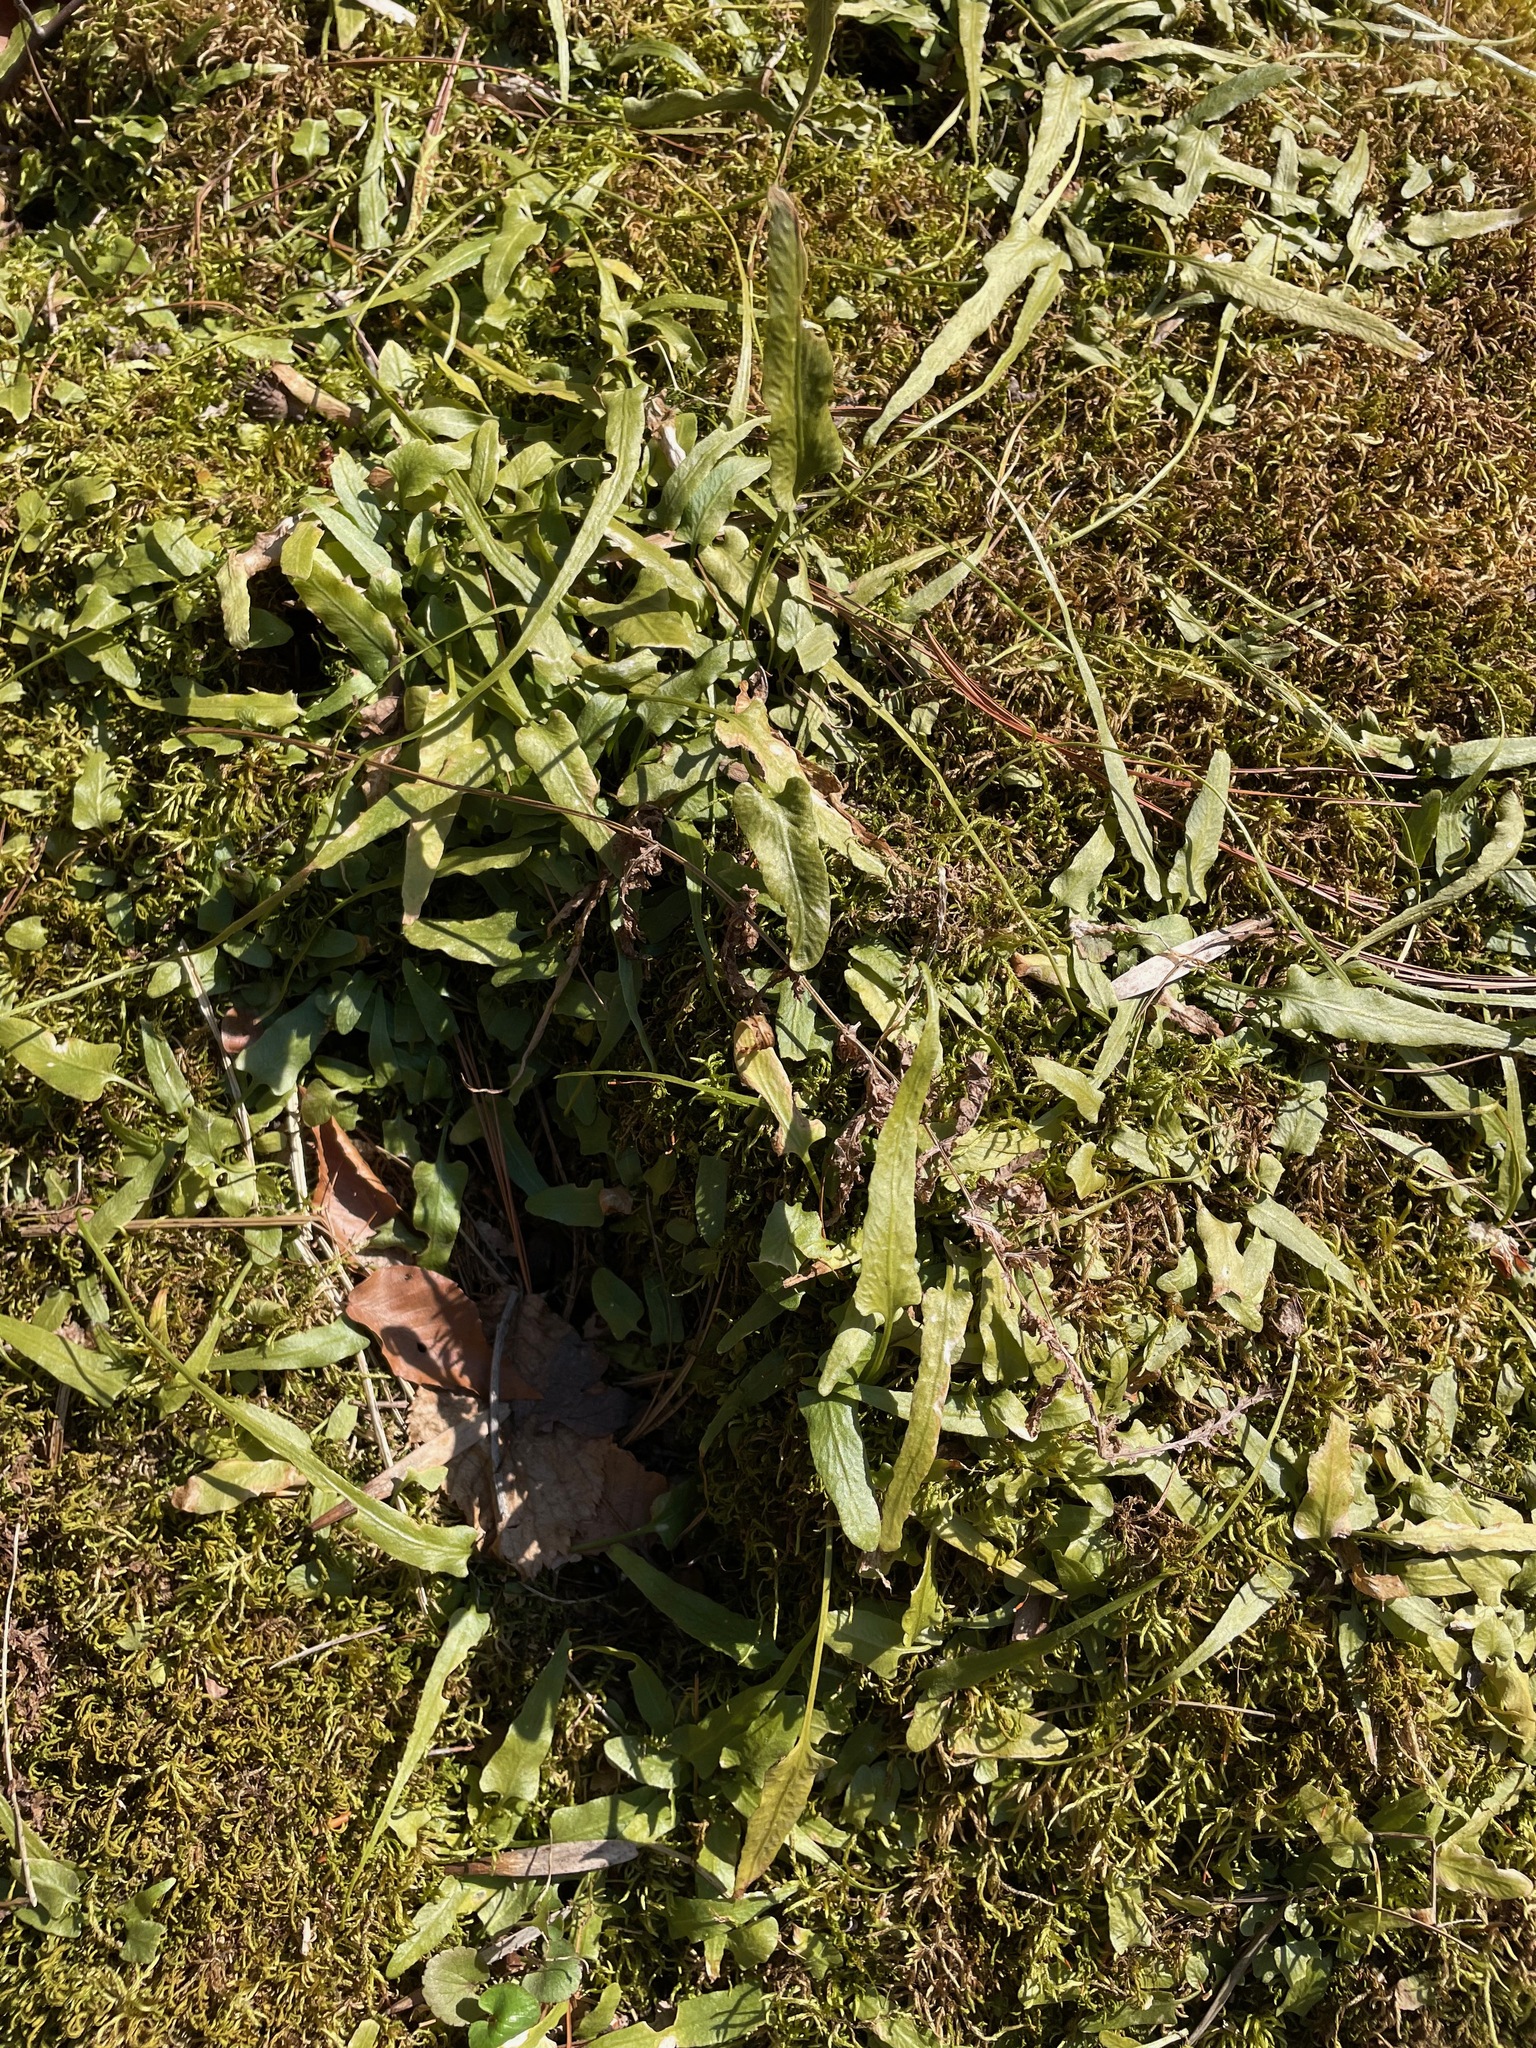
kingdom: Plantae
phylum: Tracheophyta
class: Polypodiopsida
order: Polypodiales
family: Aspleniaceae
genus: Asplenium
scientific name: Asplenium rhizophyllum
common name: Walking fern
